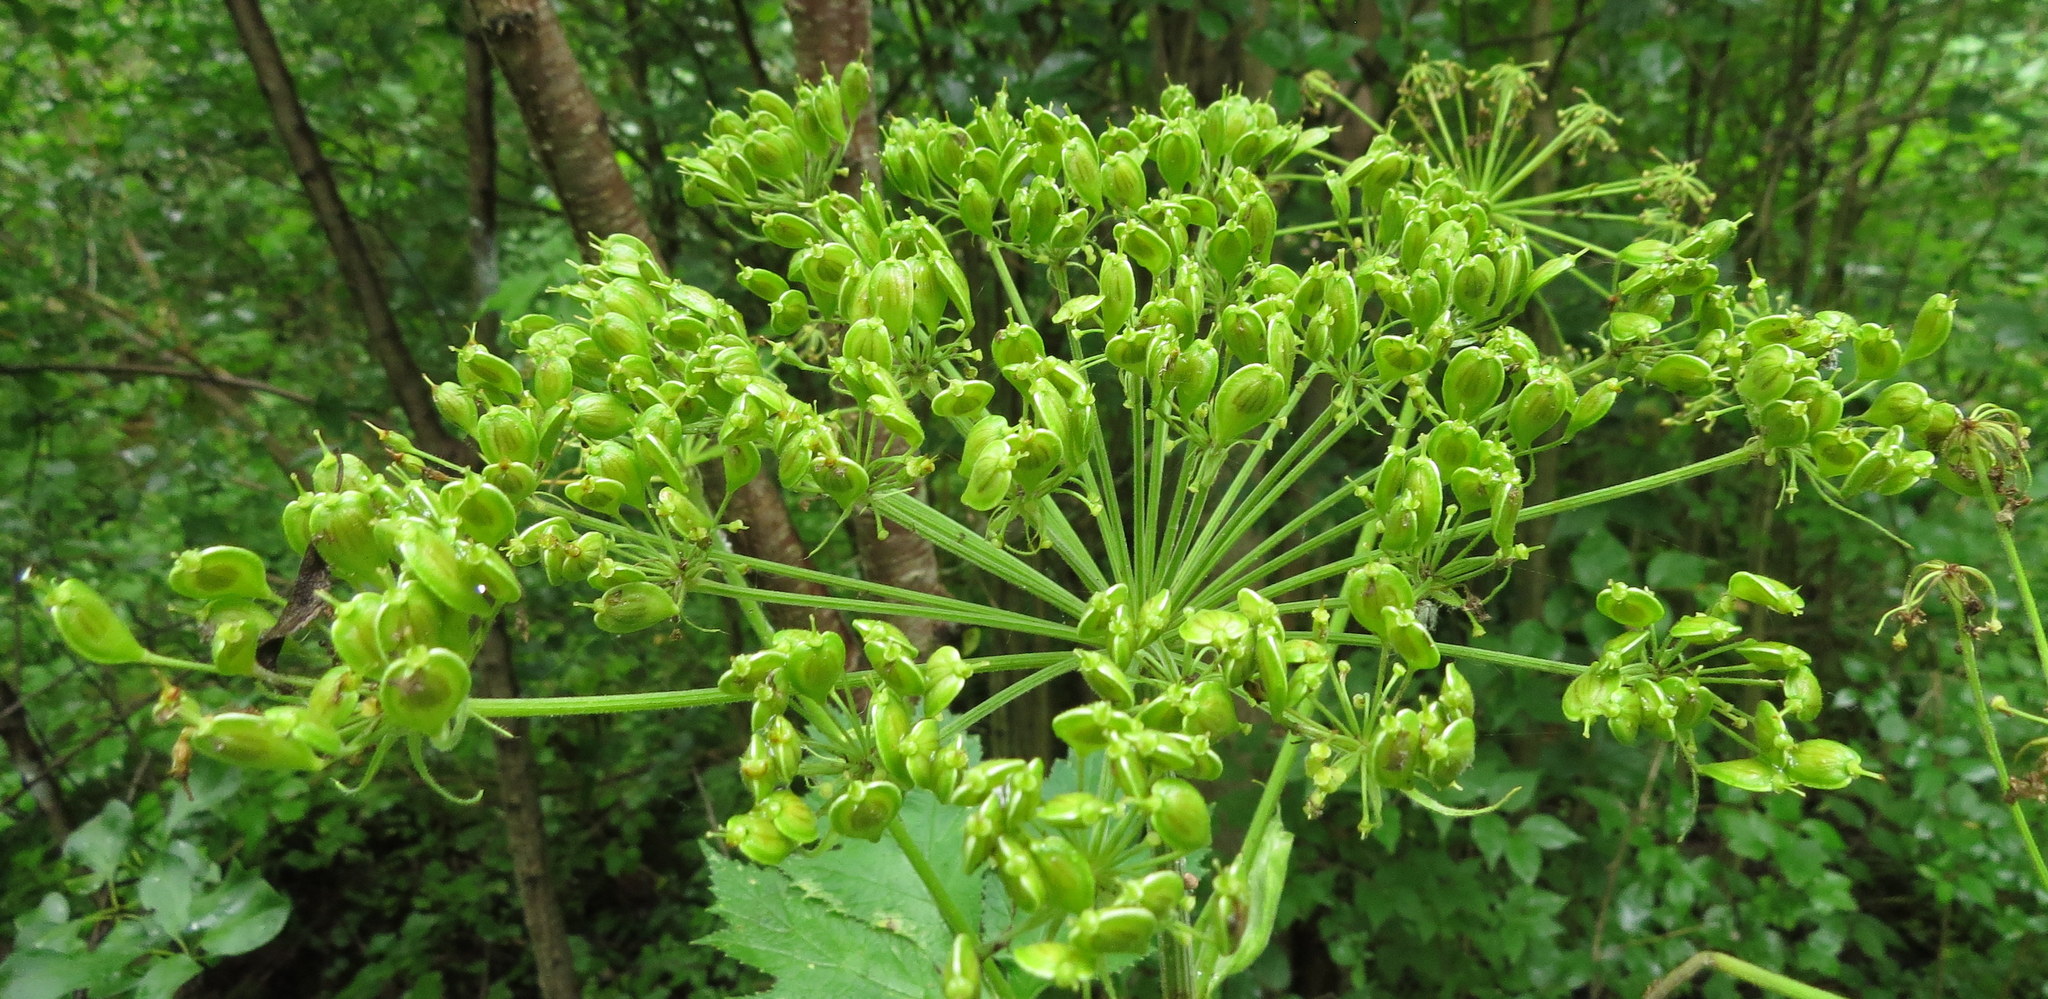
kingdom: Plantae
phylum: Tracheophyta
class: Magnoliopsida
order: Apiales
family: Apiaceae
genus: Heracleum
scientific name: Heracleum maximum
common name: American cow parsnip
